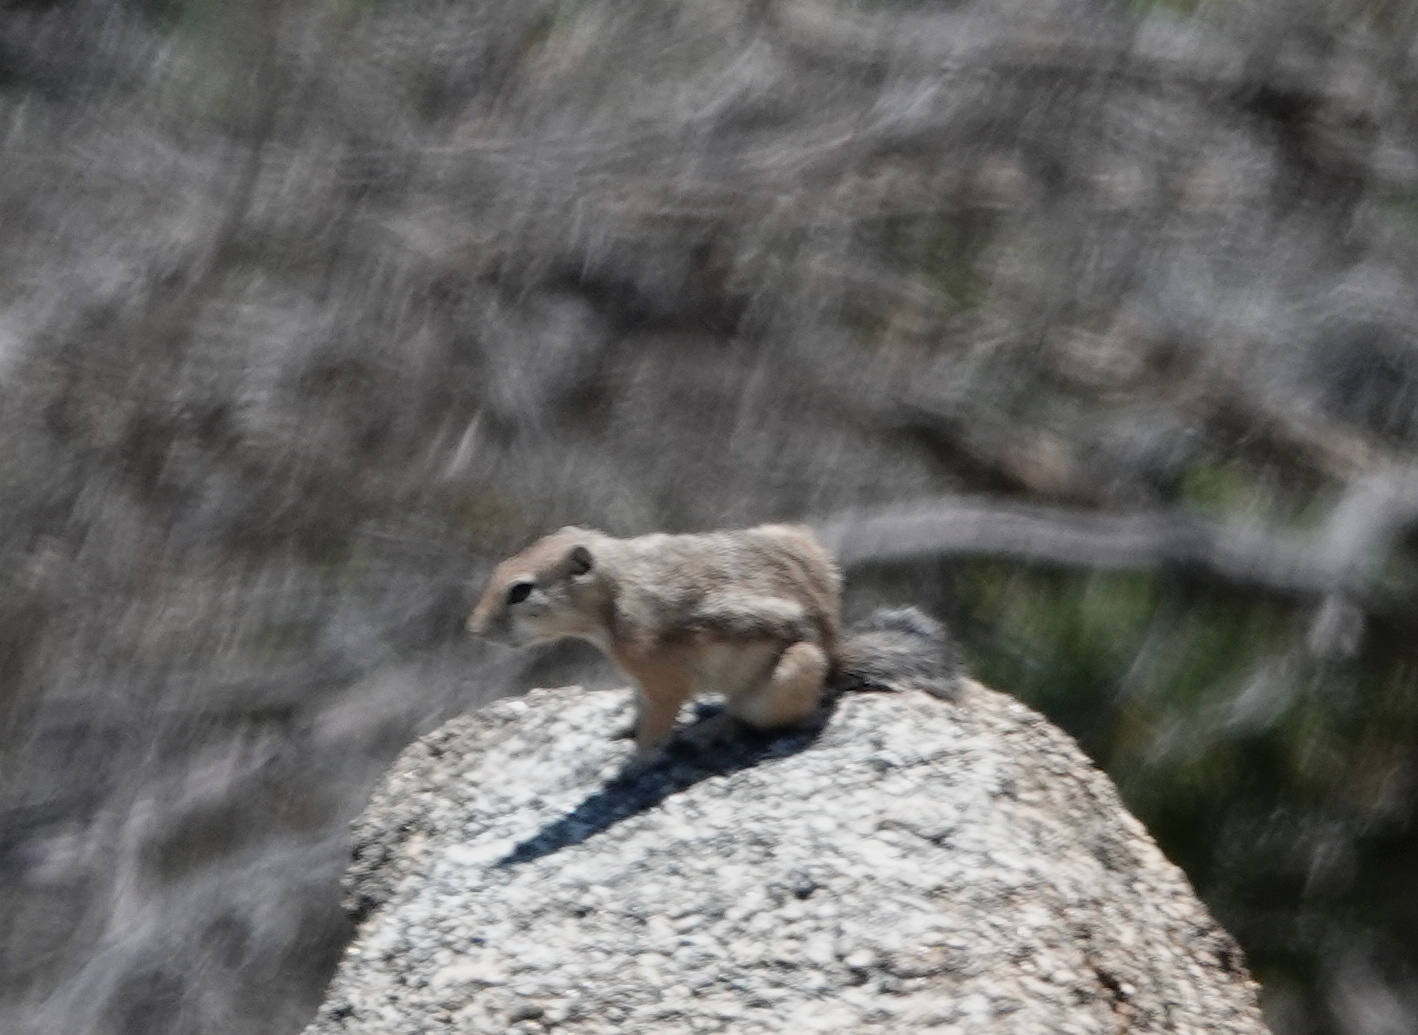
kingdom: Animalia
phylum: Chordata
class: Mammalia
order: Rodentia
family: Sciuridae
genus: Ammospermophilus
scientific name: Ammospermophilus leucurus
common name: White-tailed antelope squirrel
